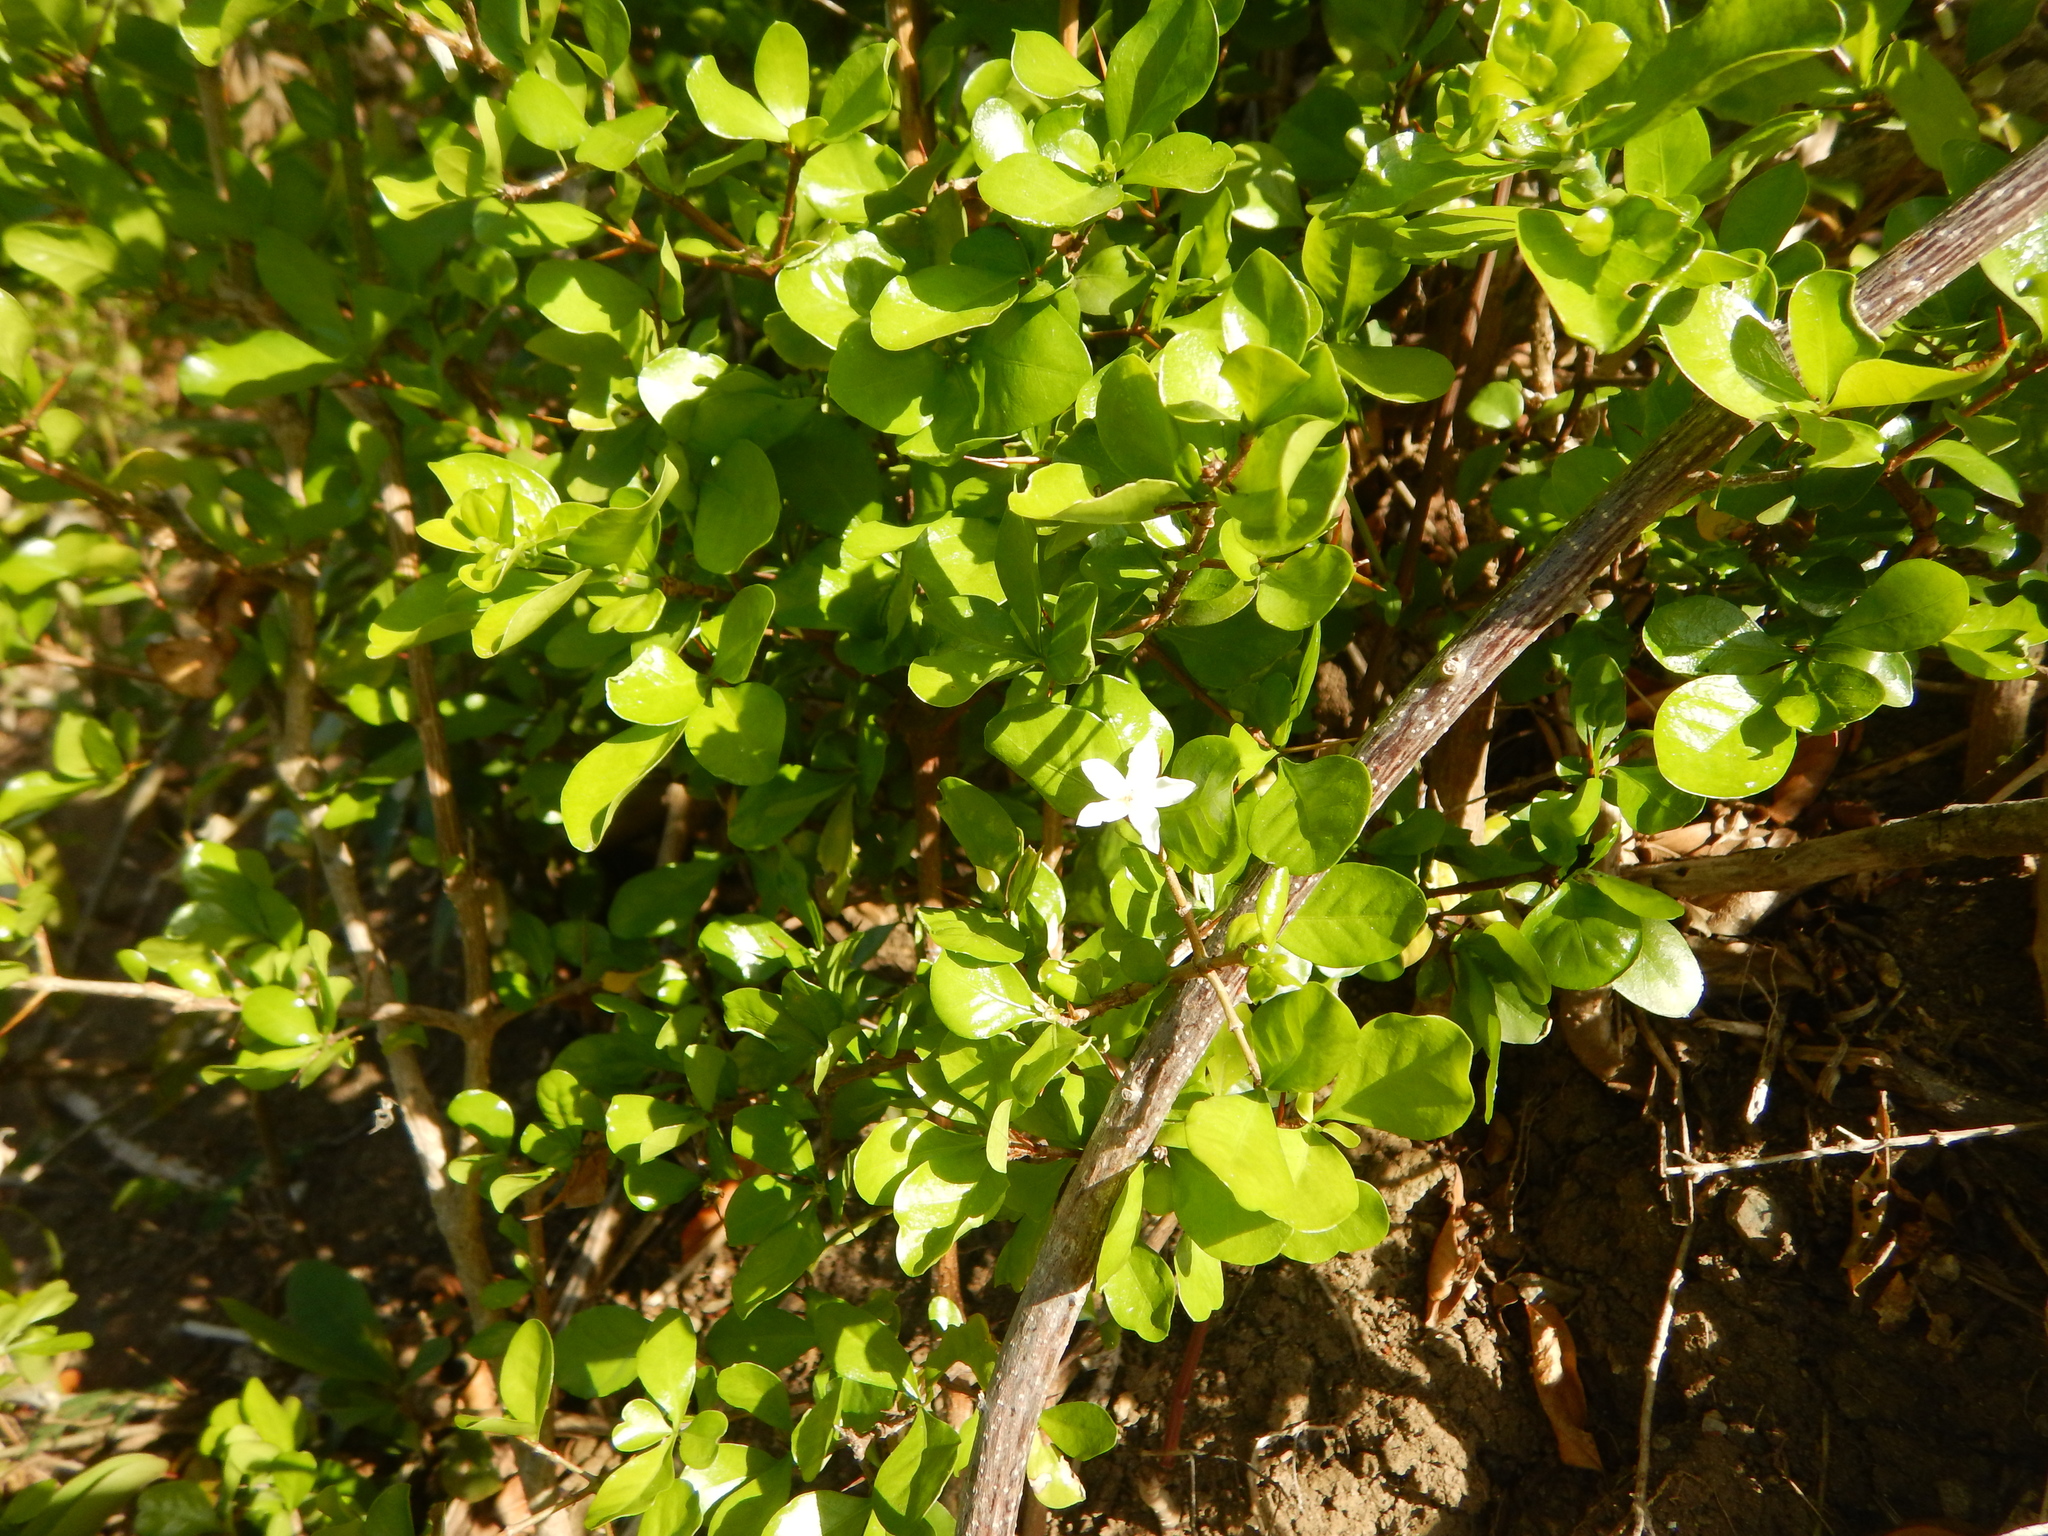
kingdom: Plantae
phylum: Tracheophyta
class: Magnoliopsida
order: Gentianales
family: Rubiaceae
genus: Randia
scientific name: Randia aculeata
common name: Inkberry
